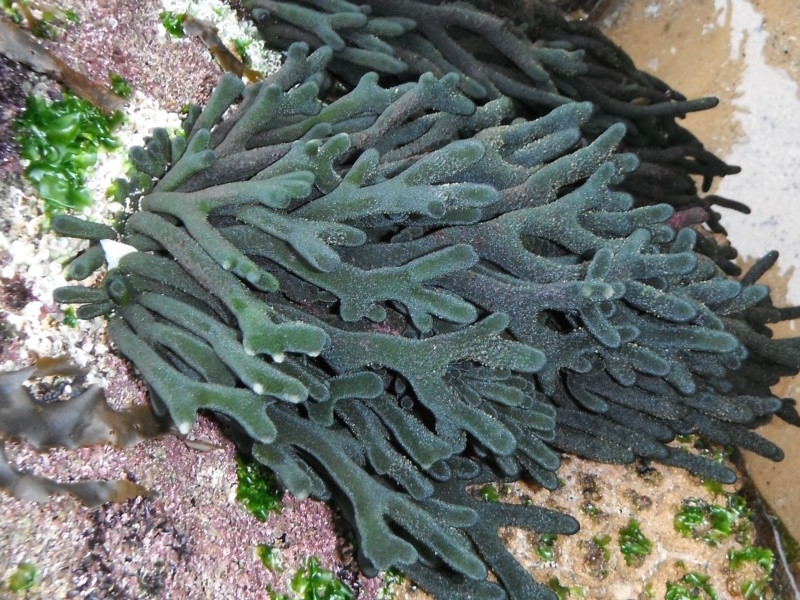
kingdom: Plantae
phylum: Chlorophyta
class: Ulvophyceae
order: Bryopsidales
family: Codiaceae
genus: Codium
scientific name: Codium fragile
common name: Dead man's fingers
